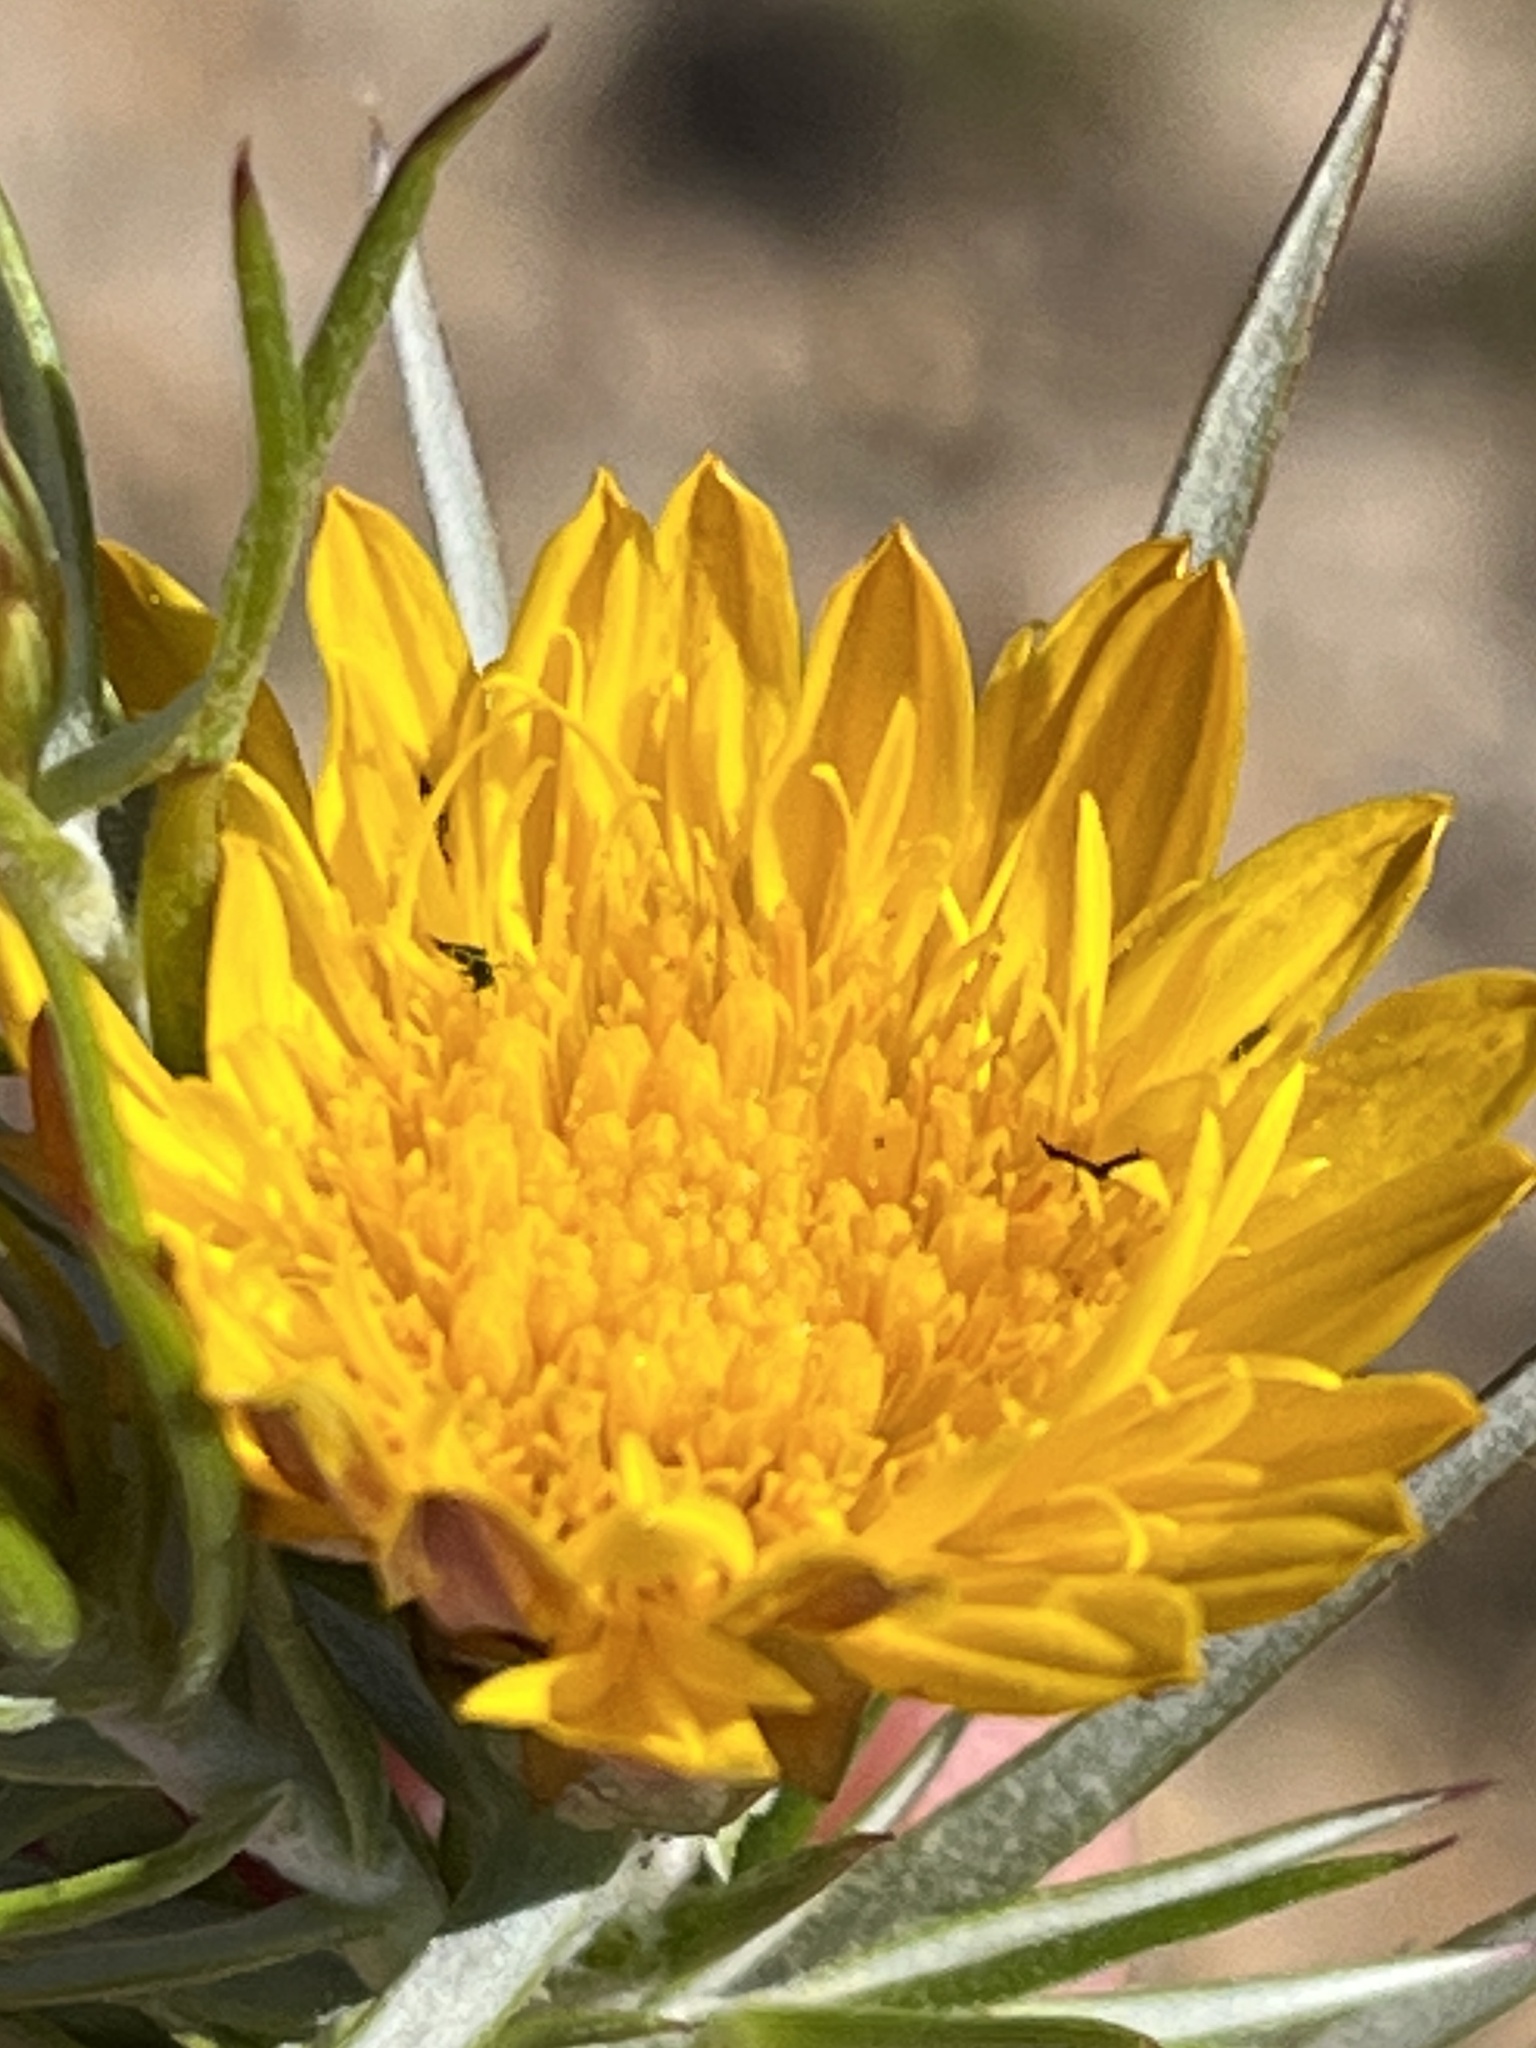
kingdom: Plantae
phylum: Tracheophyta
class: Magnoliopsida
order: Asterales
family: Asteraceae
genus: Oedera
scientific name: Oedera pungens
